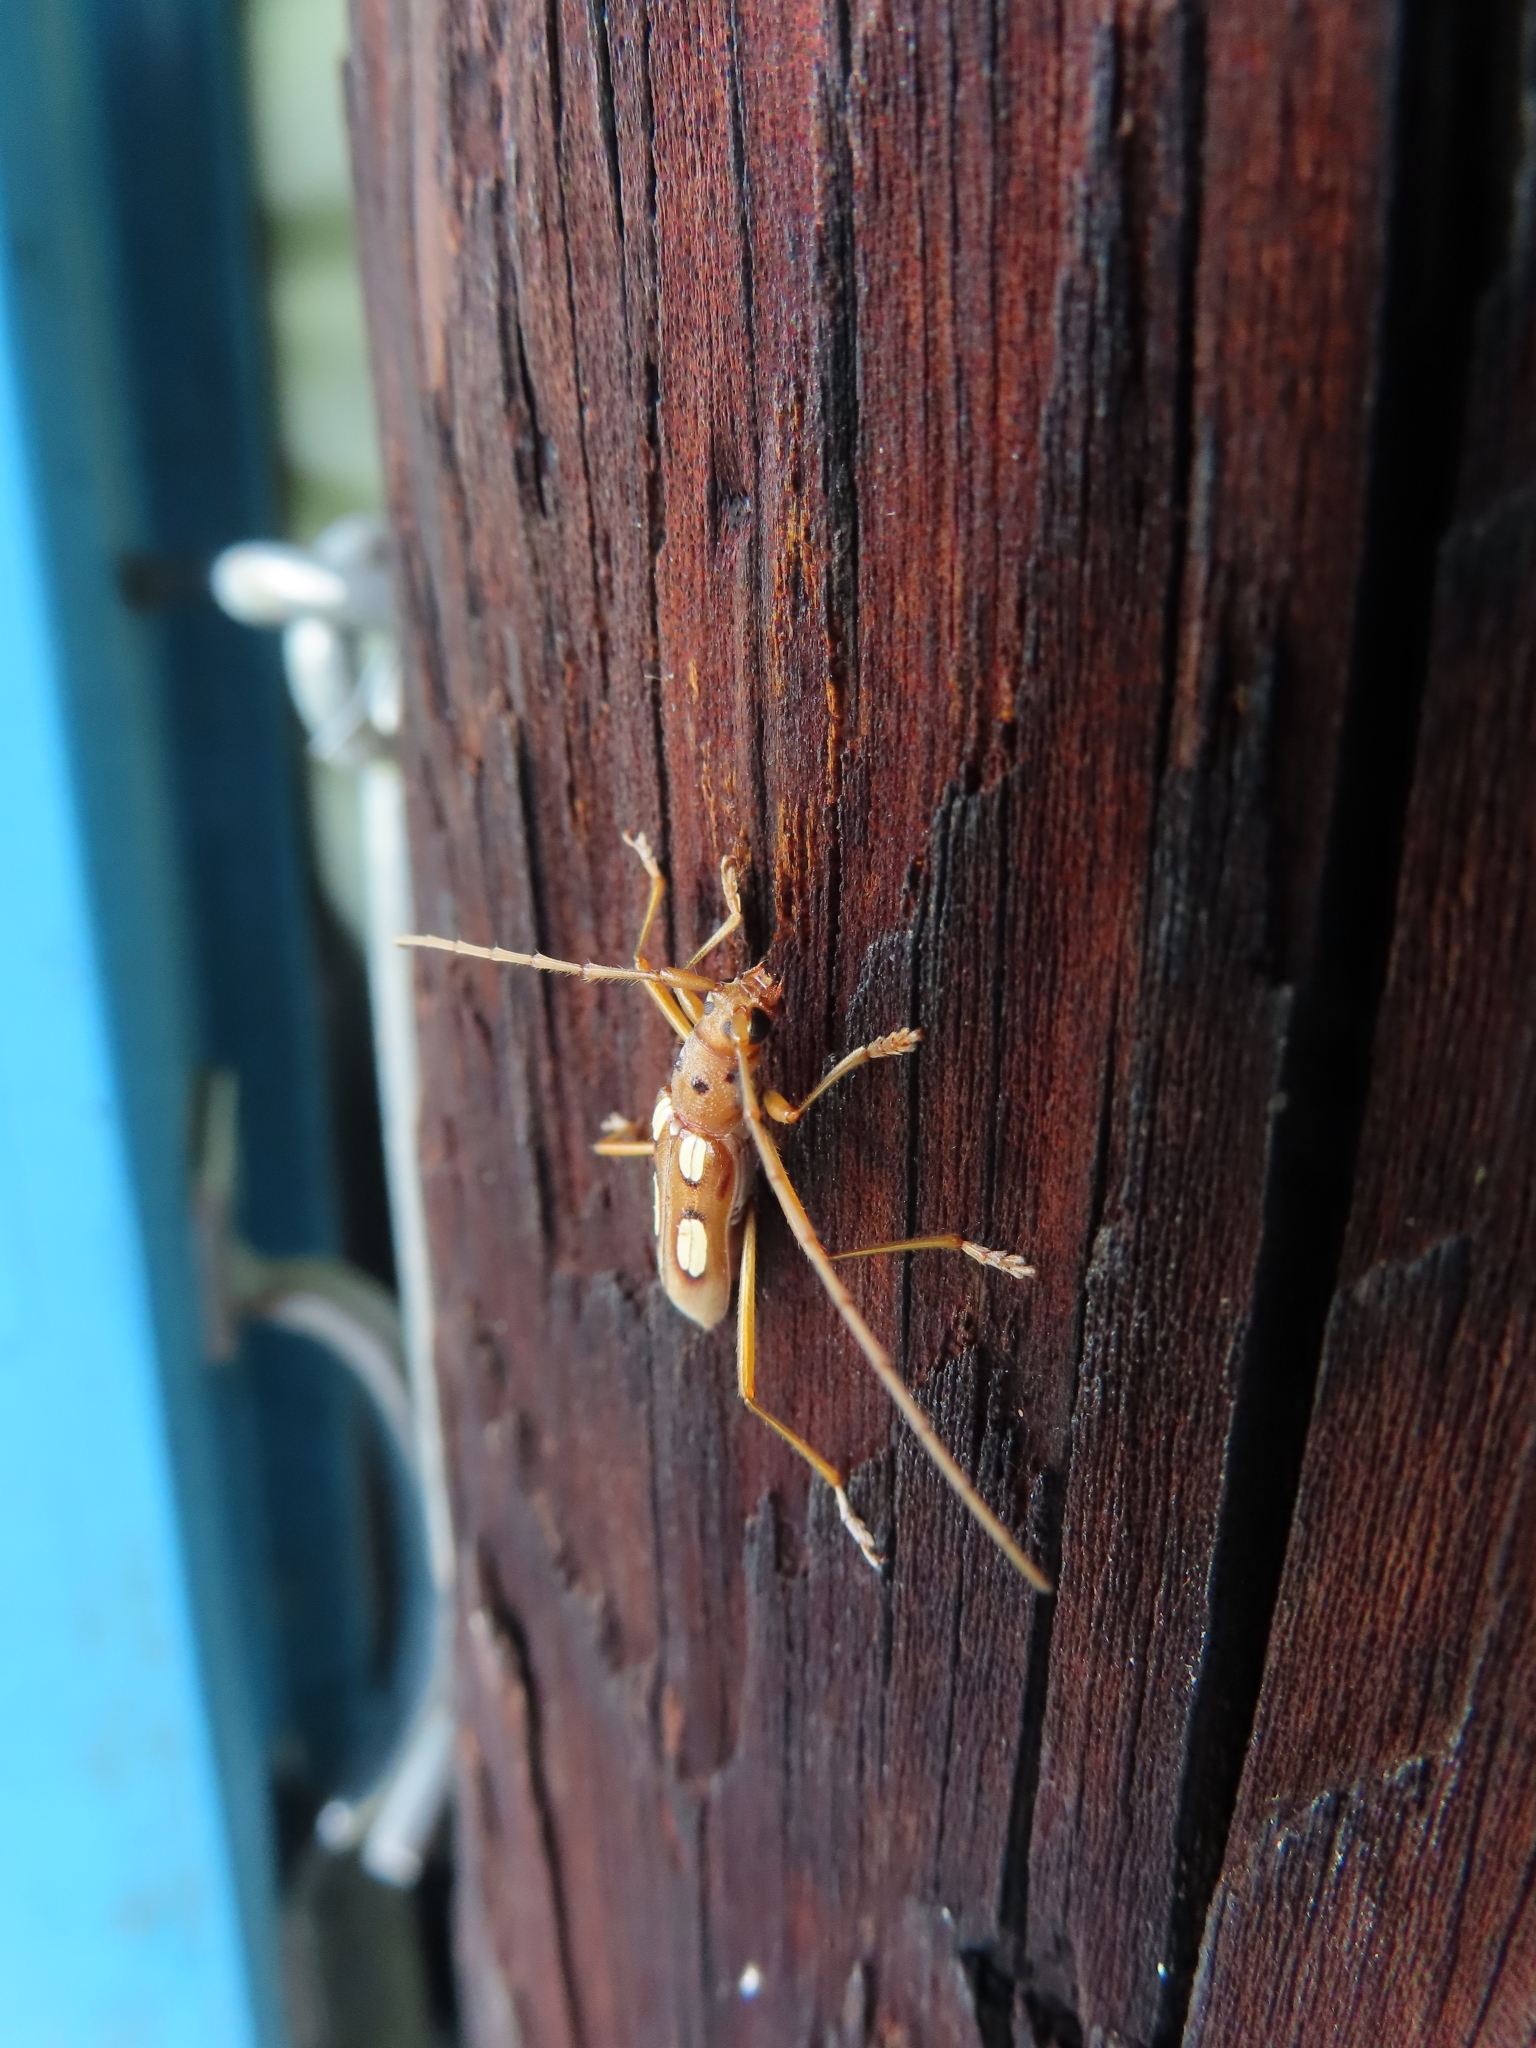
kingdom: Animalia
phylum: Arthropoda
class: Insecta
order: Coleoptera
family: Cerambycidae
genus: Eburia
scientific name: Eburia quadrimaculata
